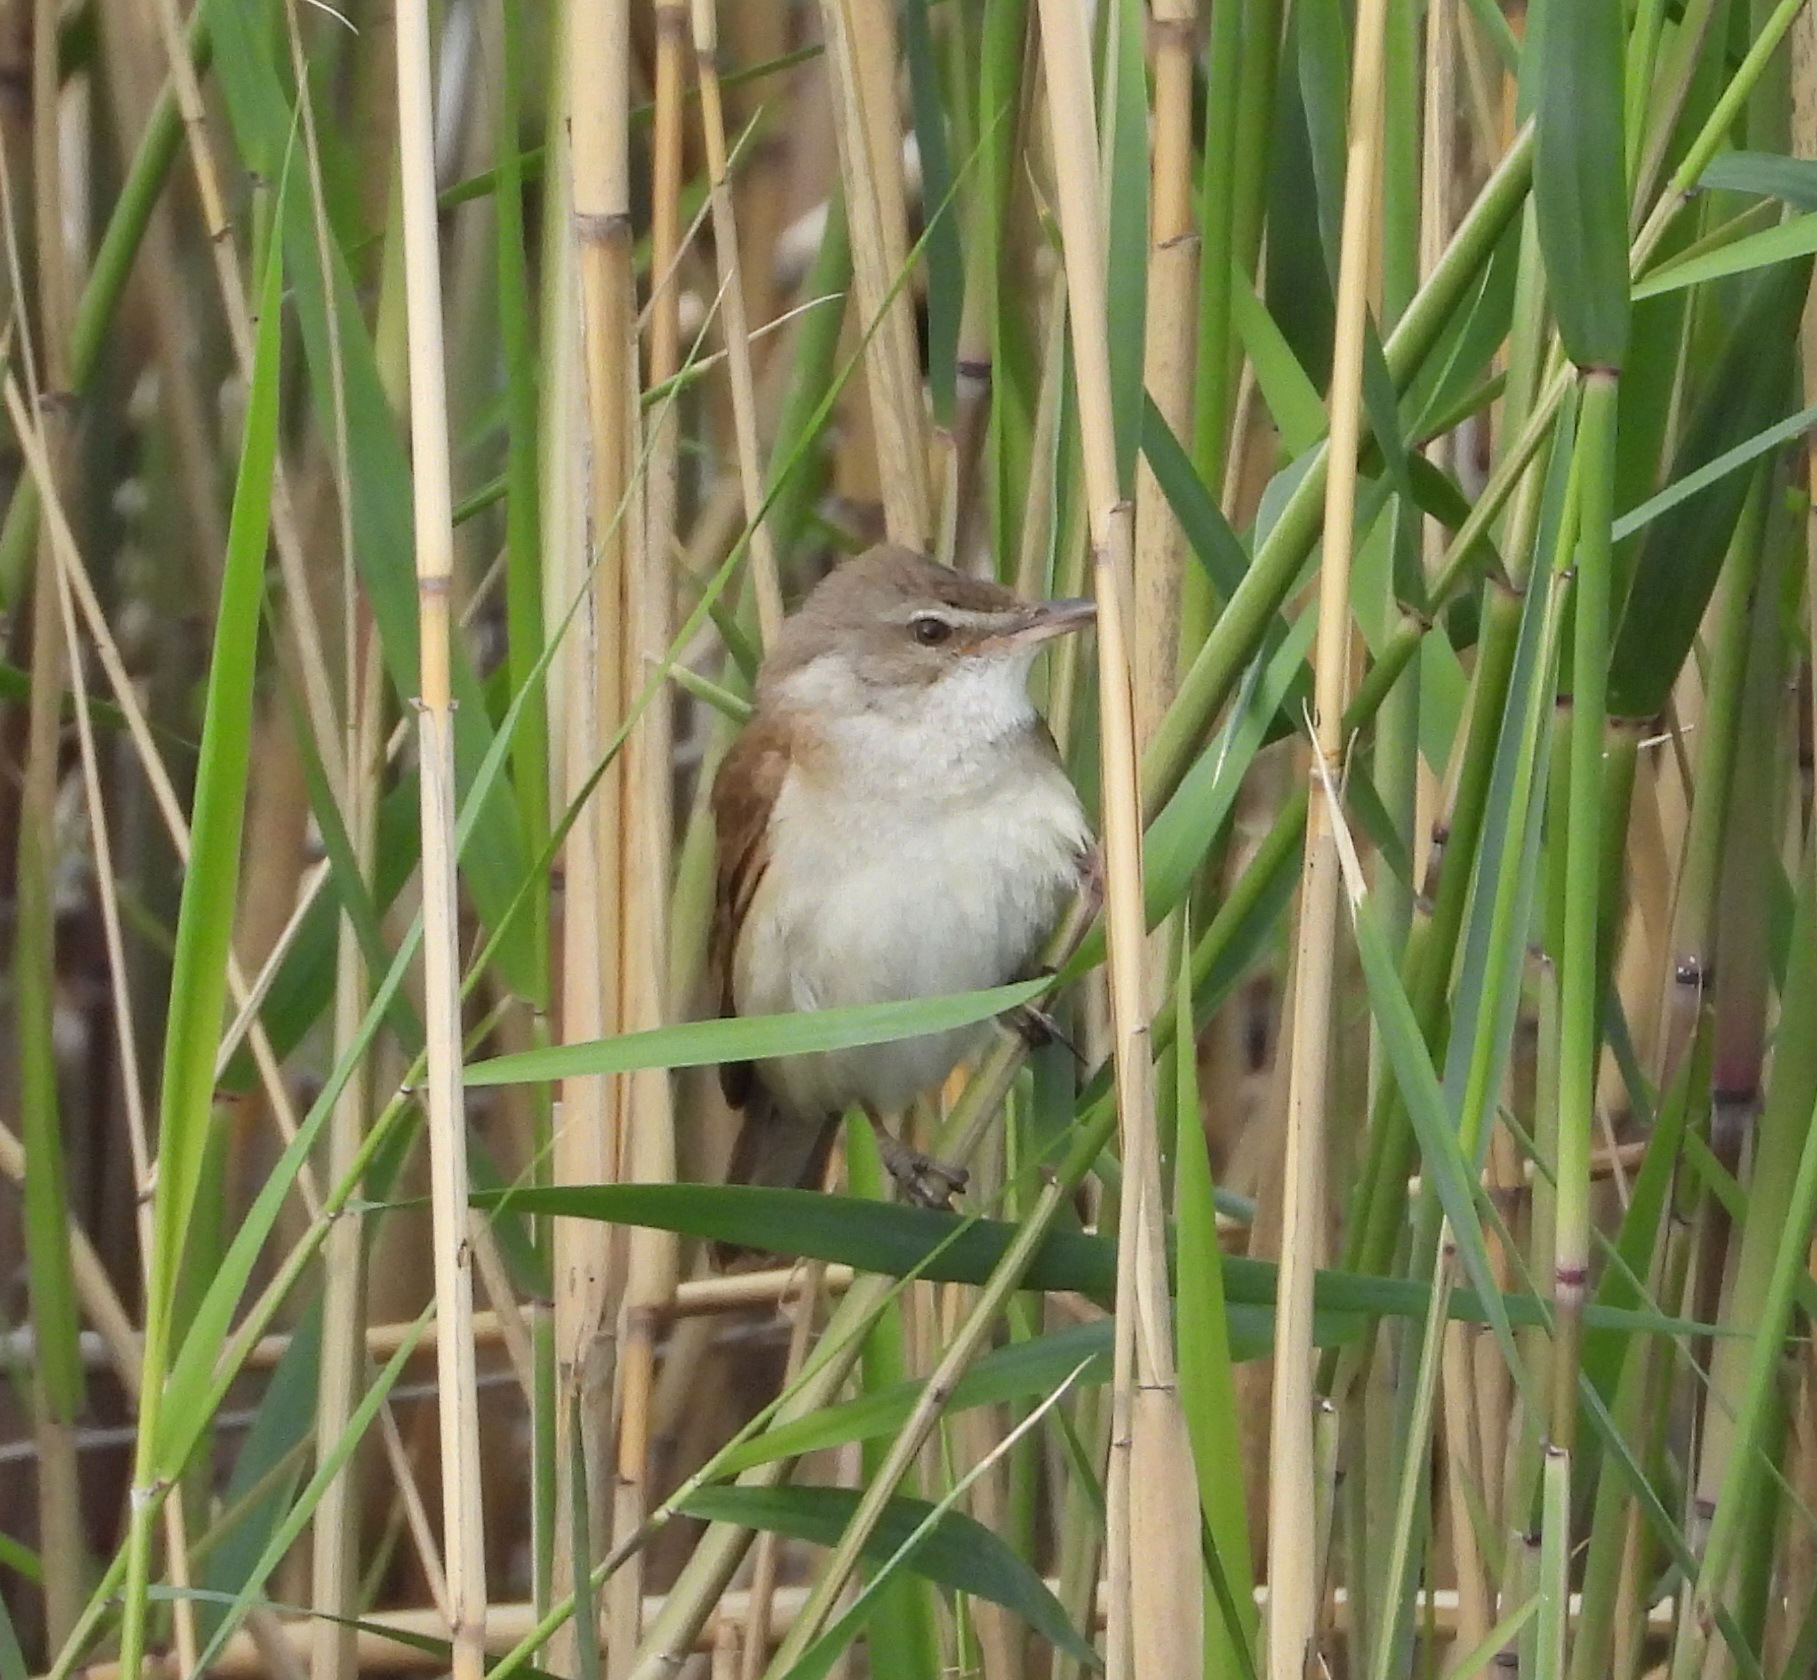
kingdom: Animalia
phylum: Chordata
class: Aves
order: Passeriformes
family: Acrocephalidae
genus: Acrocephalus
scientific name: Acrocephalus arundinaceus
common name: Great reed warbler
